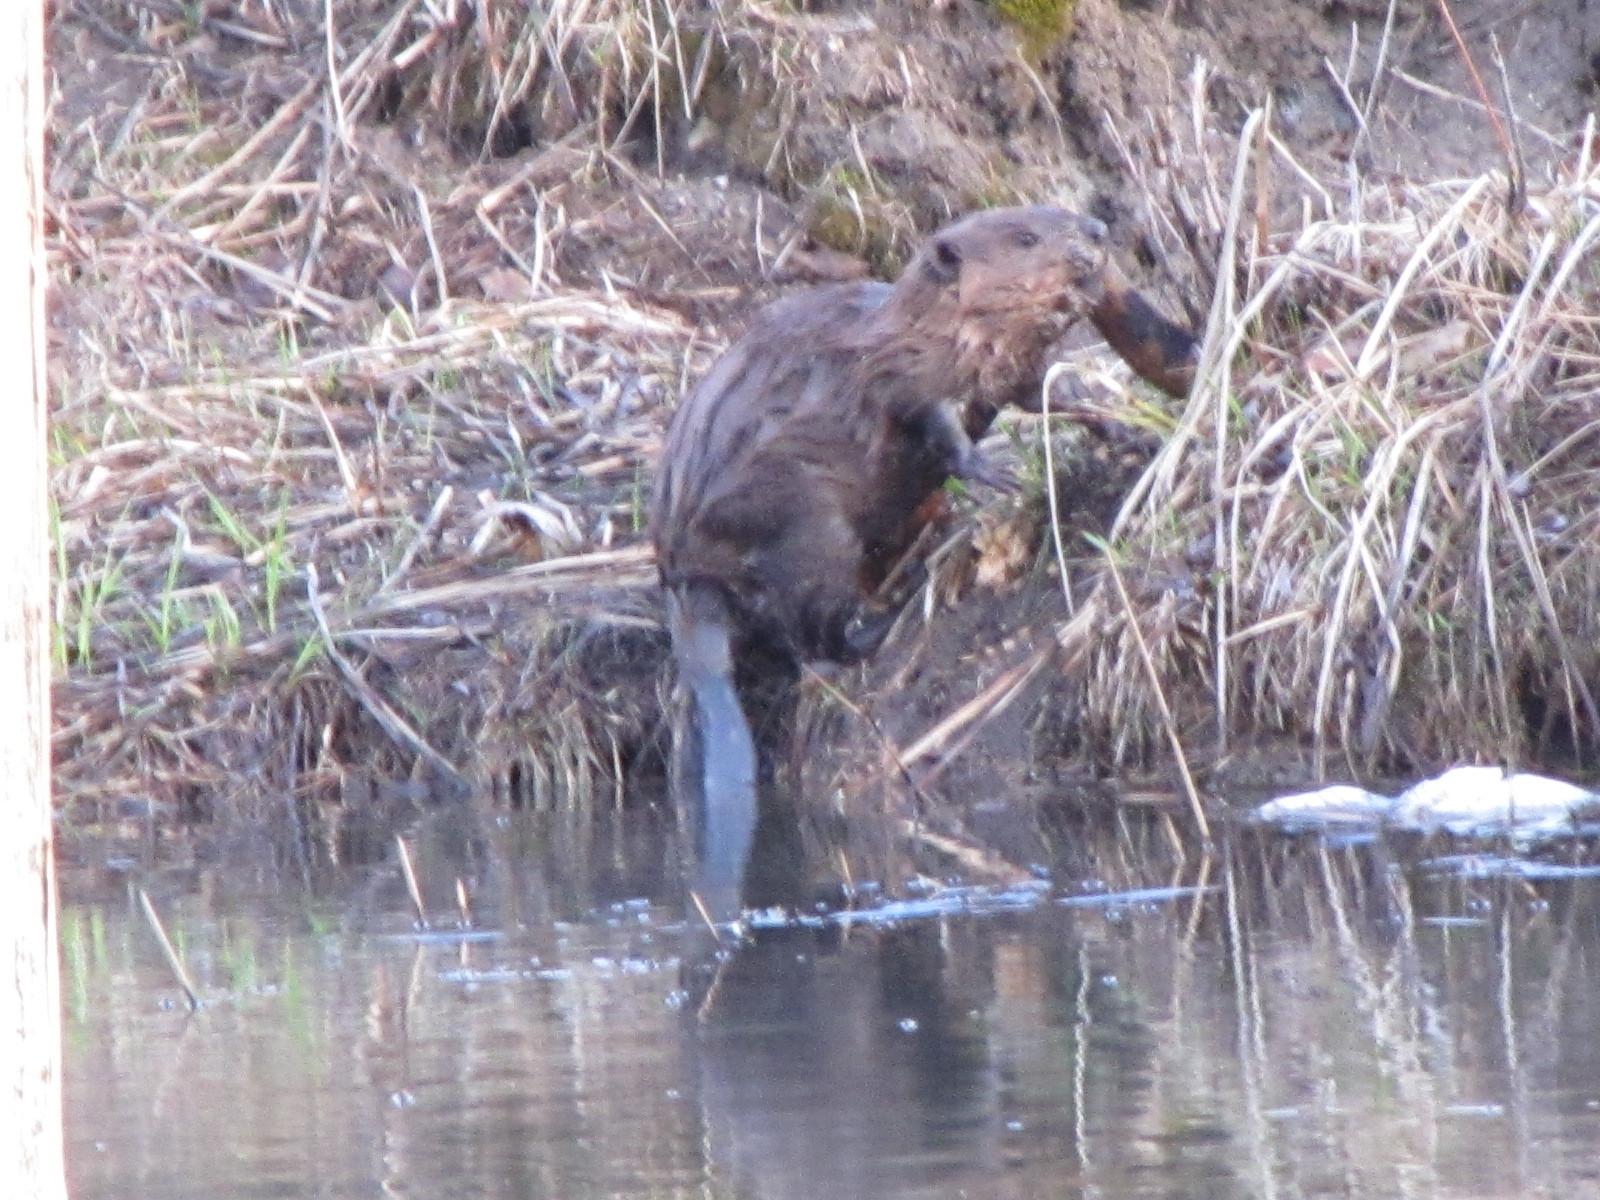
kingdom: Animalia
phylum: Chordata
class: Mammalia
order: Rodentia
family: Castoridae
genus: Castor
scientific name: Castor canadensis
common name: American beaver
